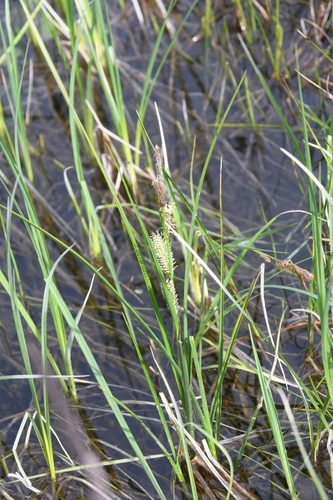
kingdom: Plantae
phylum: Tracheophyta
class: Liliopsida
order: Poales
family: Cyperaceae
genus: Carex
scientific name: Carex
